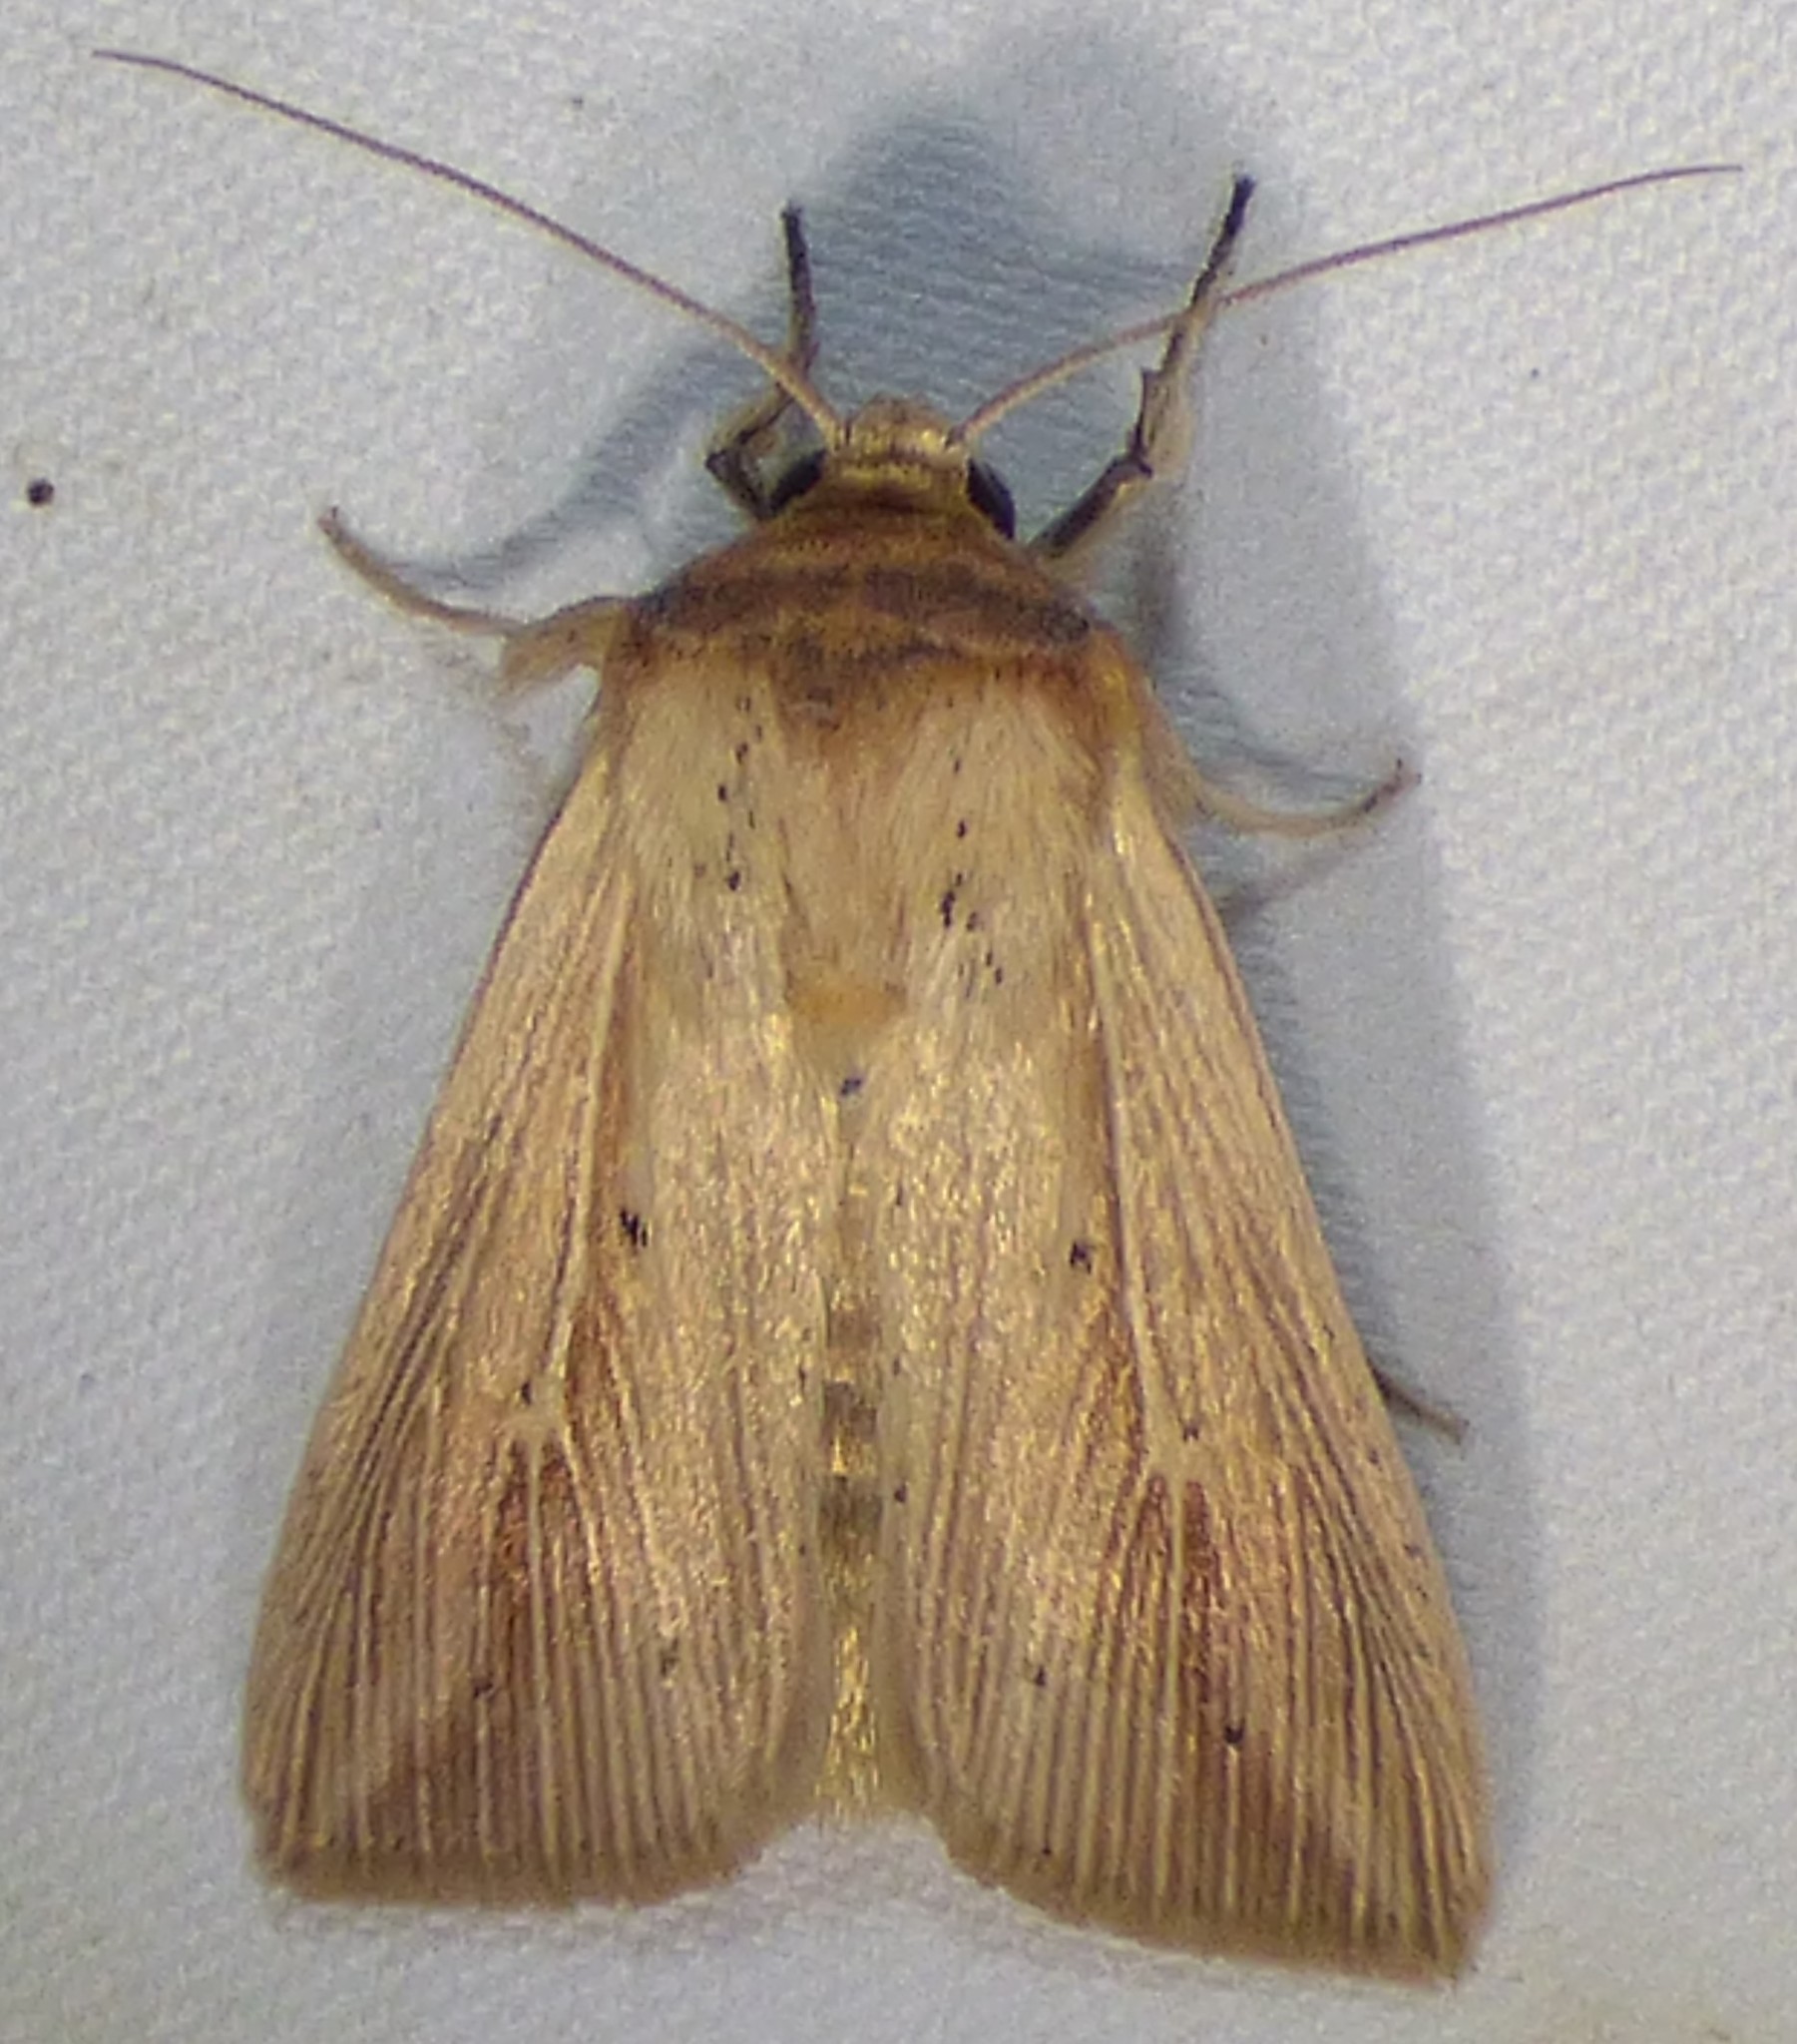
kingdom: Animalia
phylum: Arthropoda
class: Insecta
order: Lepidoptera
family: Noctuidae
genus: Leucania
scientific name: Leucania adjuta
